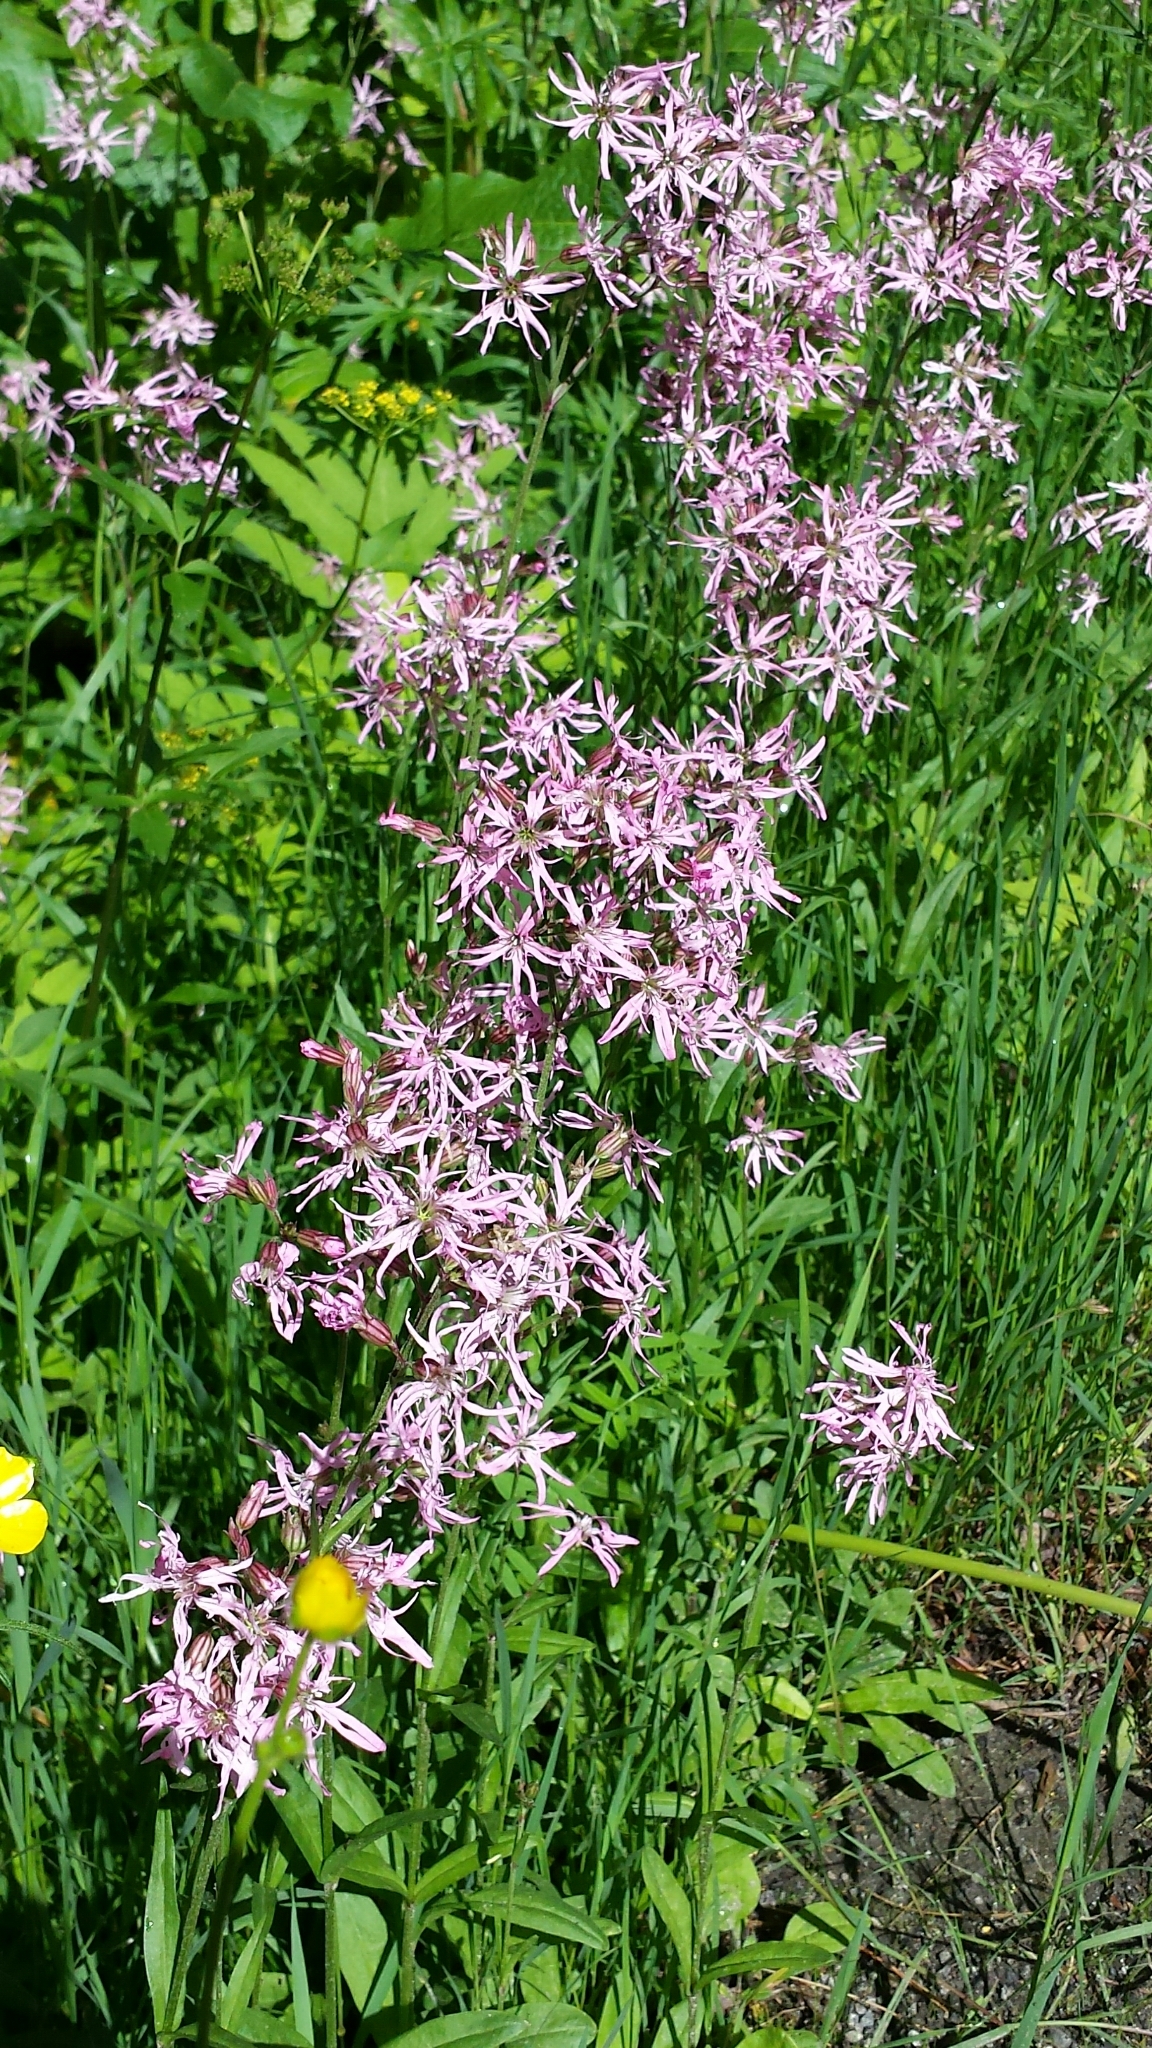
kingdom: Plantae
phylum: Tracheophyta
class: Magnoliopsida
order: Caryophyllales
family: Caryophyllaceae
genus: Silene
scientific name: Silene flos-cuculi
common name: Ragged-robin
